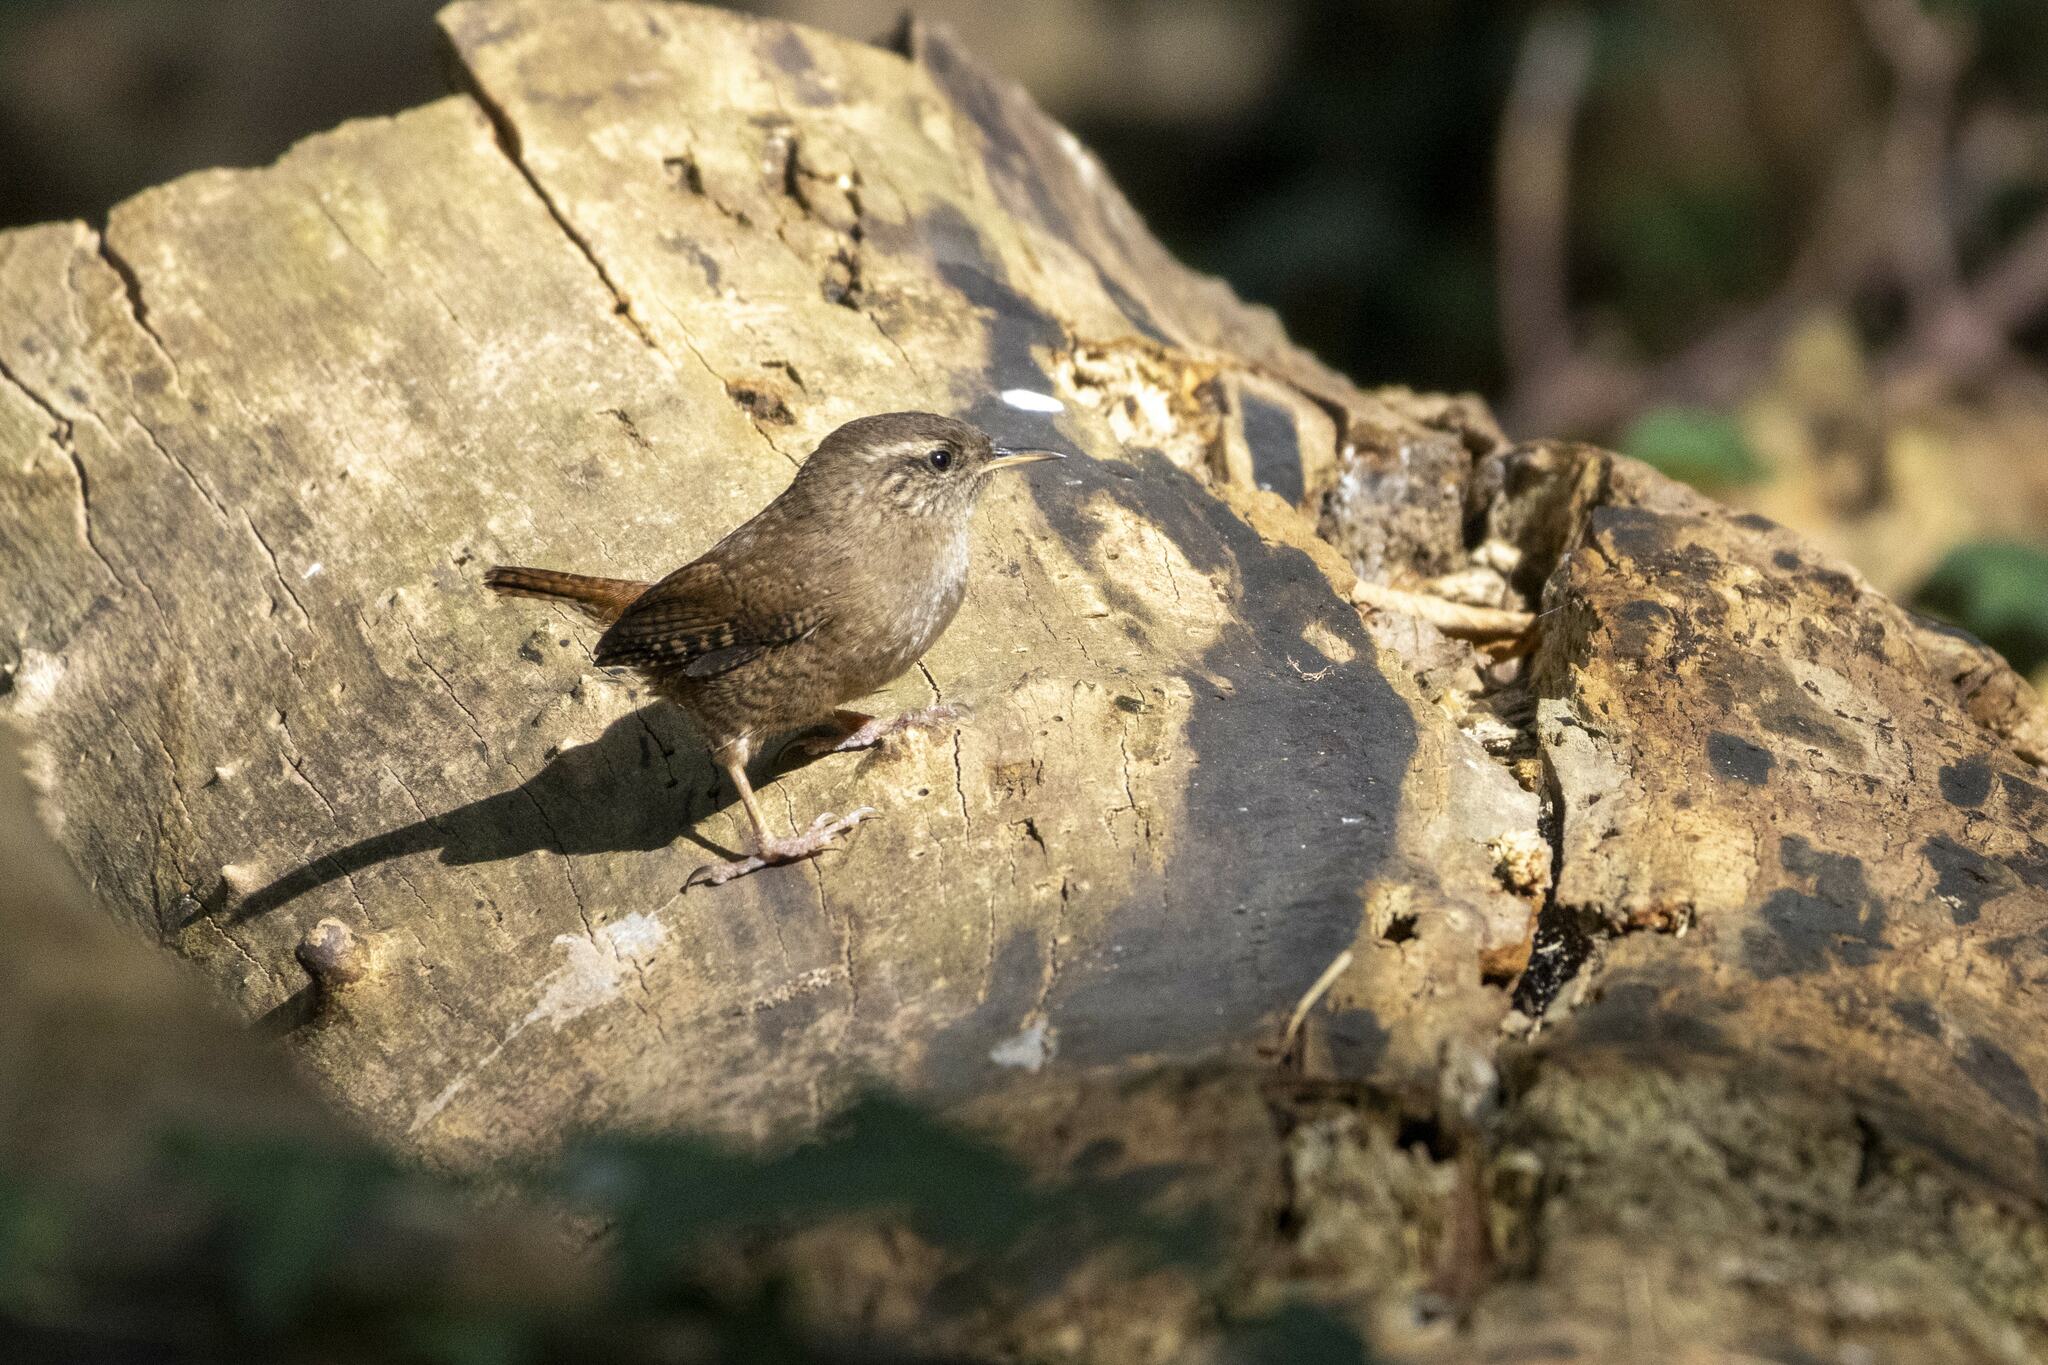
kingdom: Animalia
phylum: Chordata
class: Aves
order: Passeriformes
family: Troglodytidae
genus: Troglodytes
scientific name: Troglodytes troglodytes
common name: Eurasian wren
